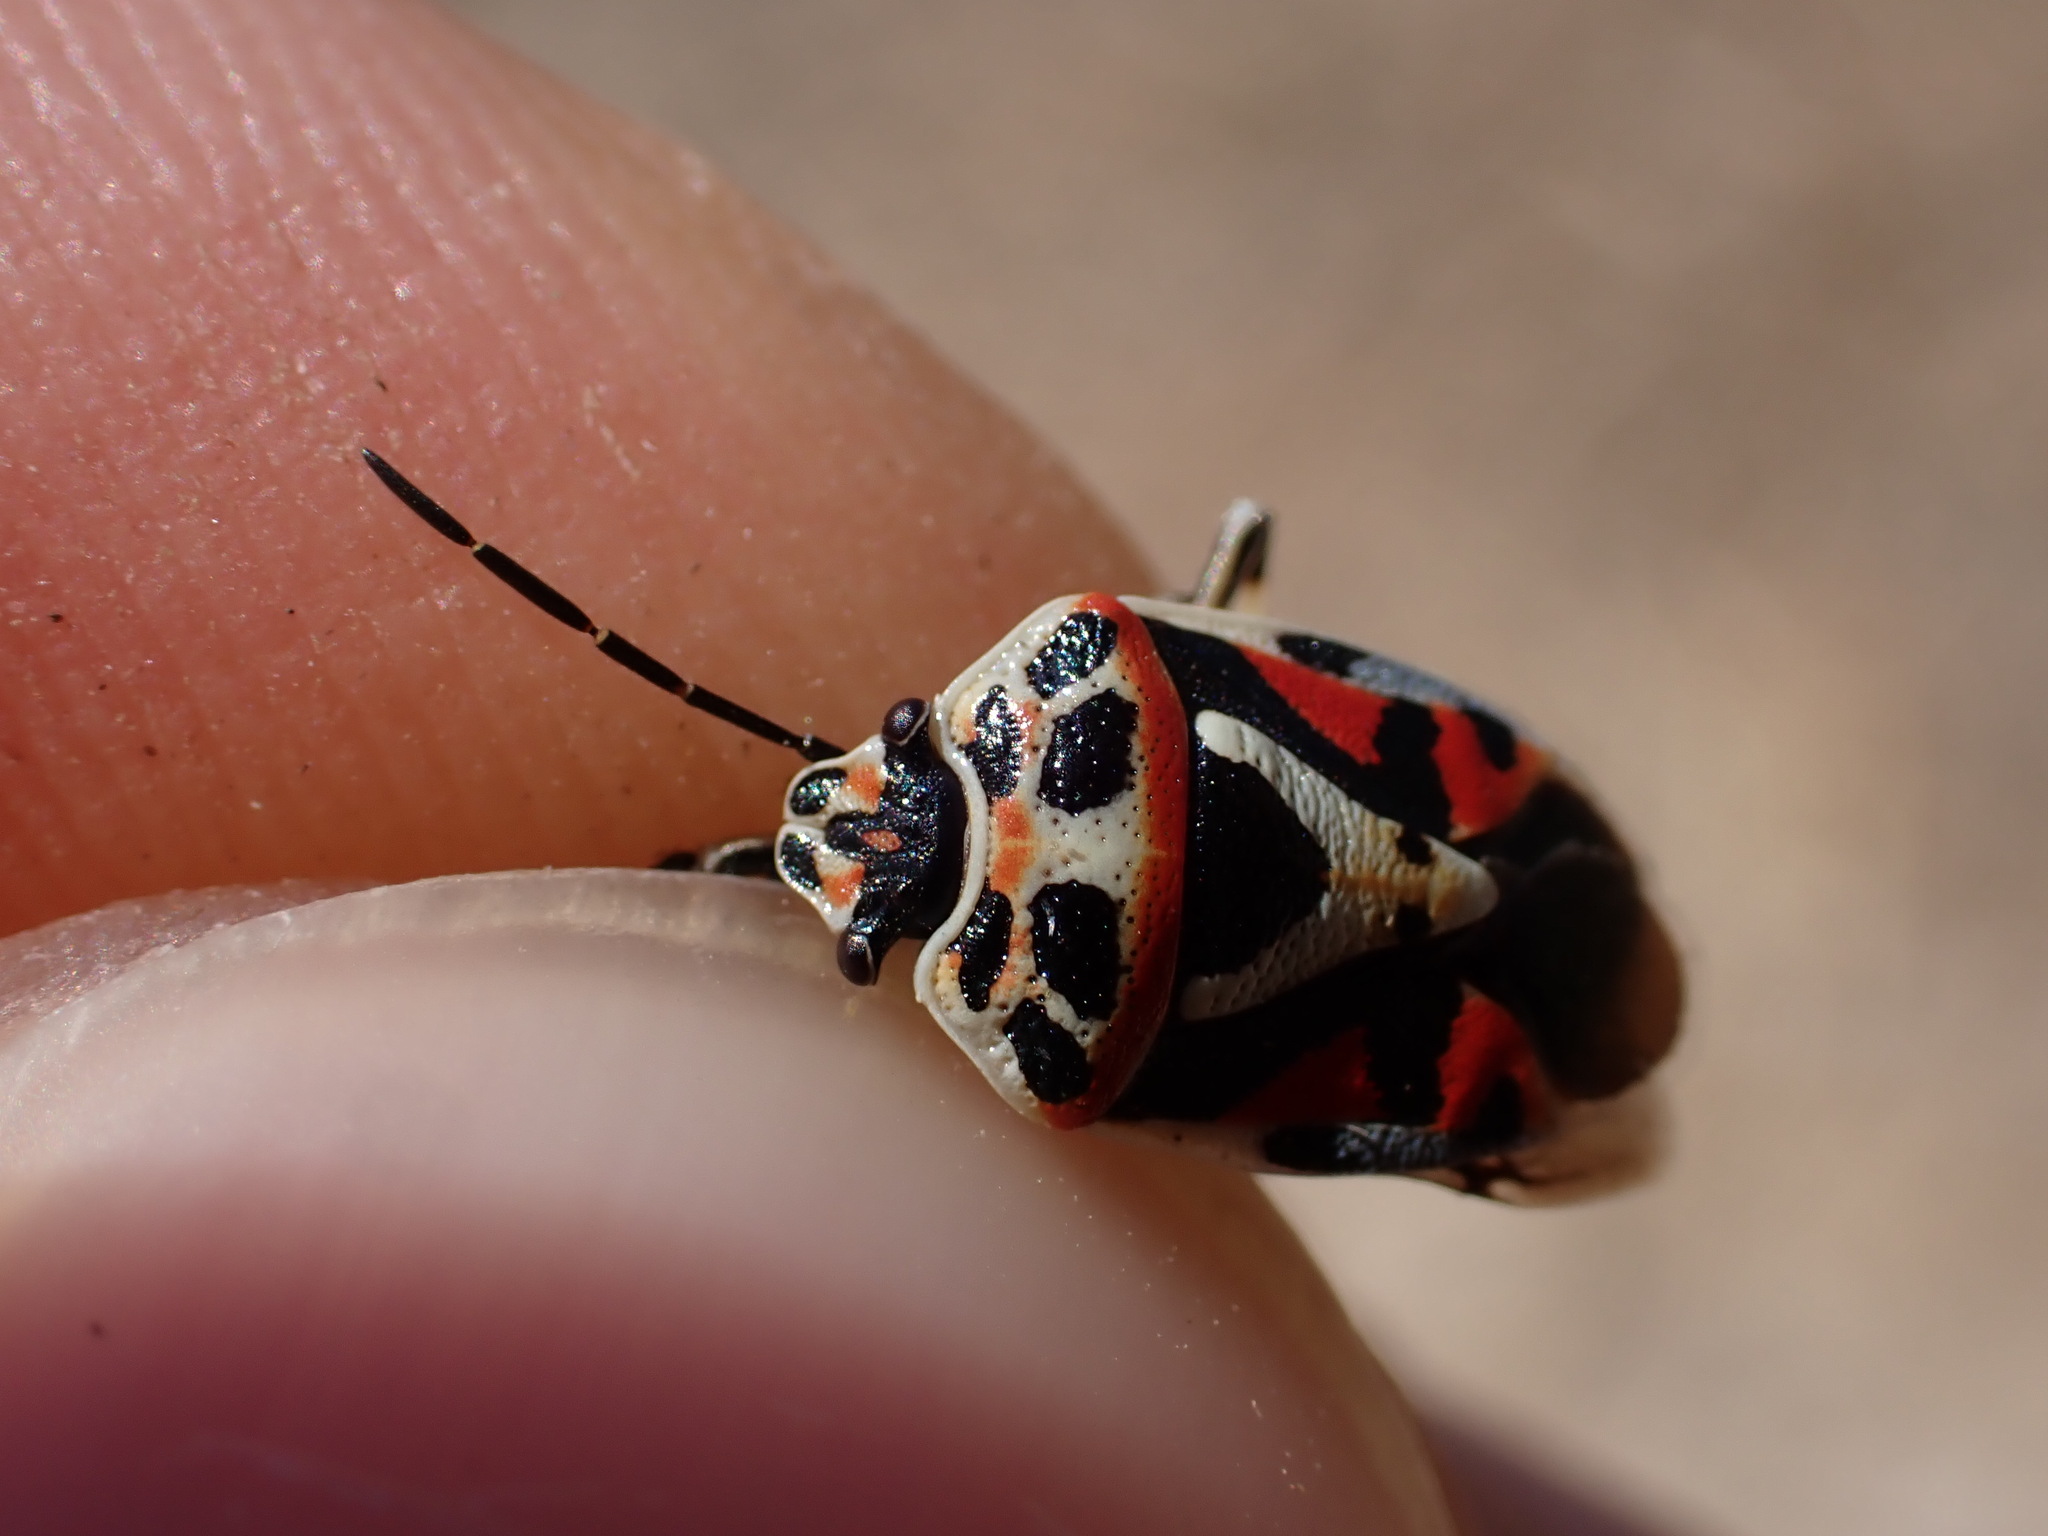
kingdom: Animalia
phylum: Arthropoda
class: Insecta
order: Hemiptera
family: Pentatomidae
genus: Eurydema
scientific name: Eurydema ornata
